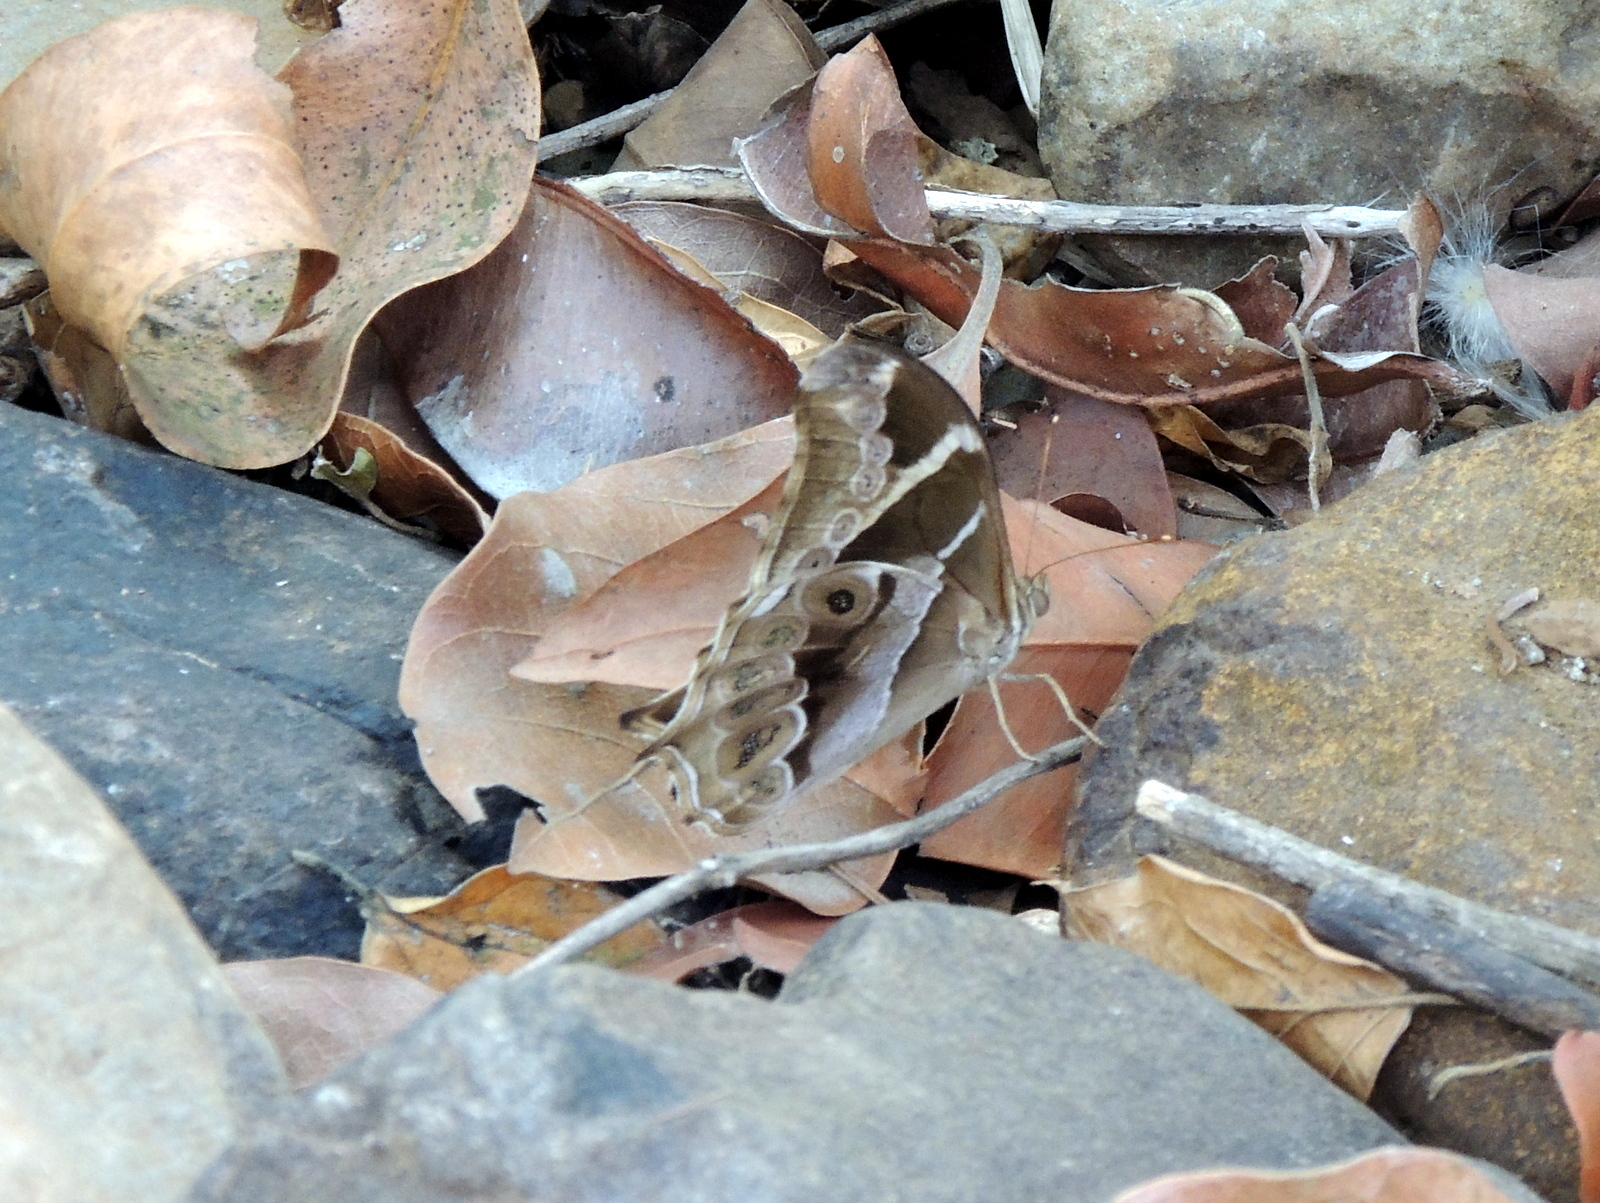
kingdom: Animalia
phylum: Arthropoda
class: Insecta
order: Lepidoptera
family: Nymphalidae
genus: Lethe
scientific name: Lethe europa
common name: Bamboo treebrown
